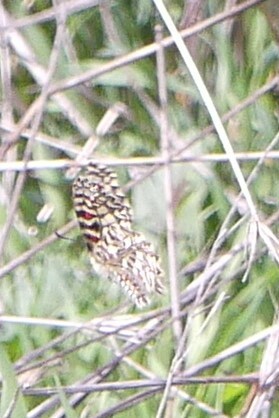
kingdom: Animalia
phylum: Arthropoda
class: Insecta
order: Lepidoptera
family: Papilionidae
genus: Zerynthia
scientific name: Zerynthia rumina
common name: Spanish festoon
